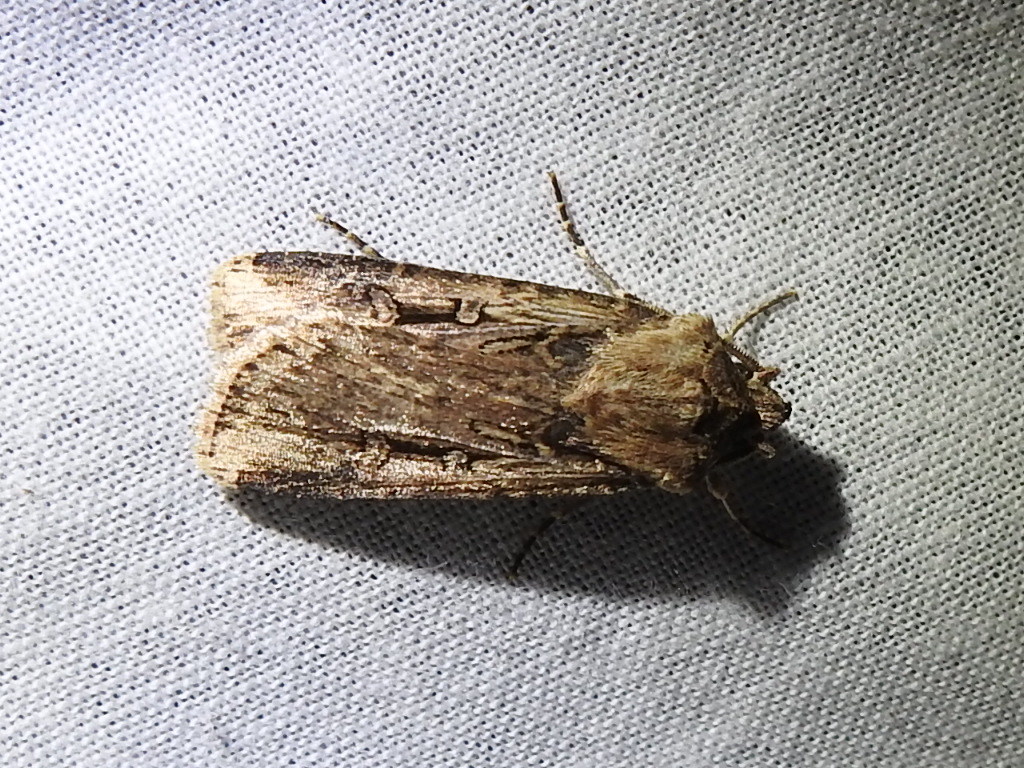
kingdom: Animalia
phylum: Arthropoda
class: Insecta
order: Lepidoptera
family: Noctuidae
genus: Feltia
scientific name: Feltia subterranea
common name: Granulate cutworm
